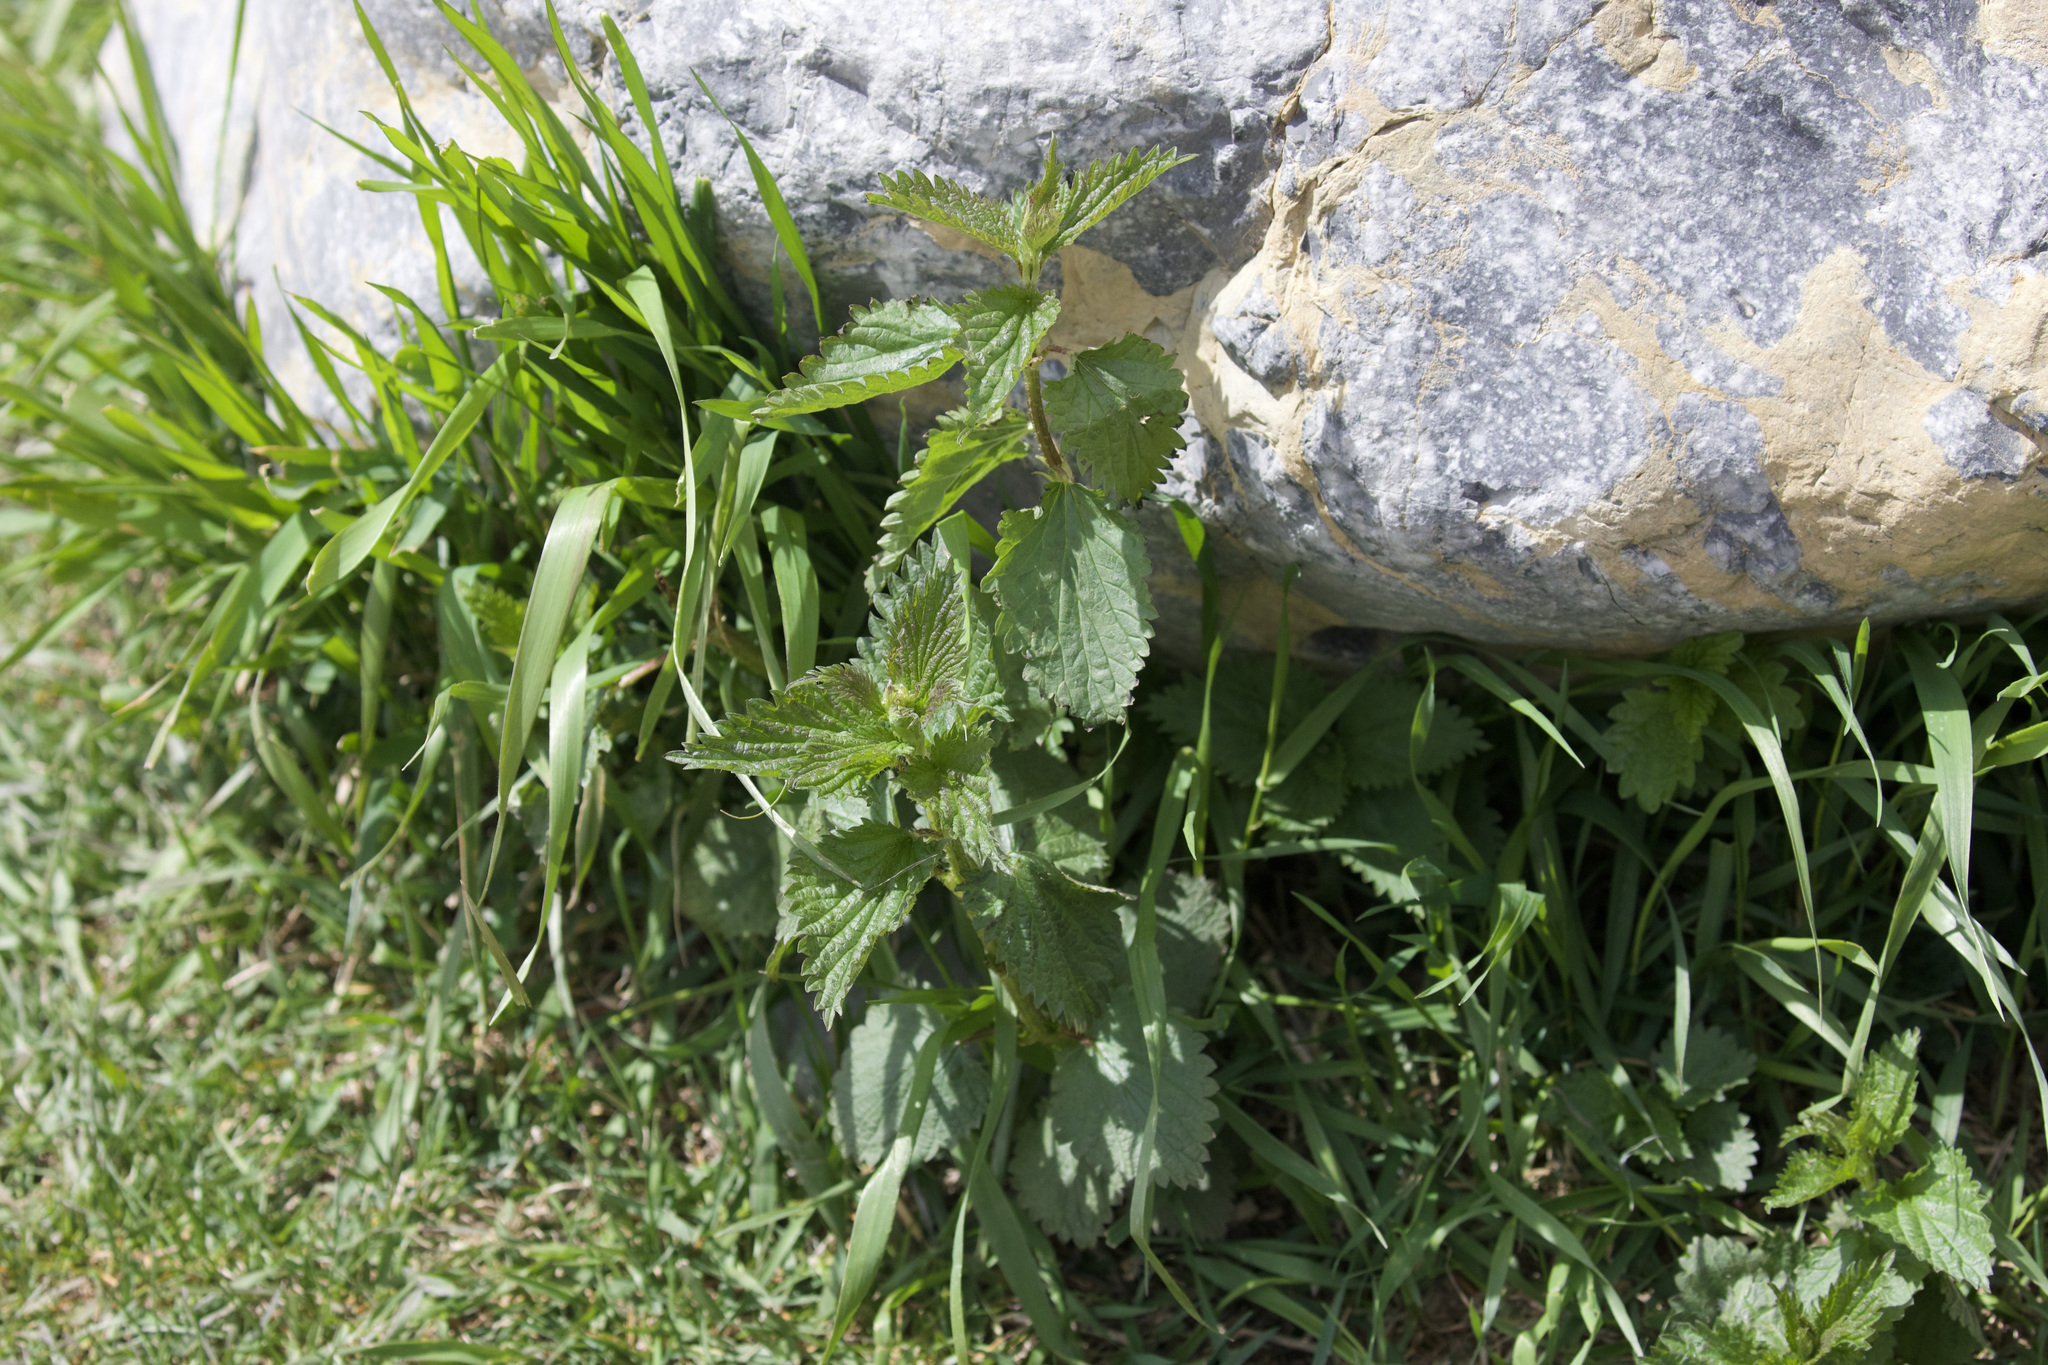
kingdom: Plantae
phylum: Tracheophyta
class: Magnoliopsida
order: Rosales
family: Urticaceae
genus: Urtica
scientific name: Urtica gracilis
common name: Slender stinging nettle
